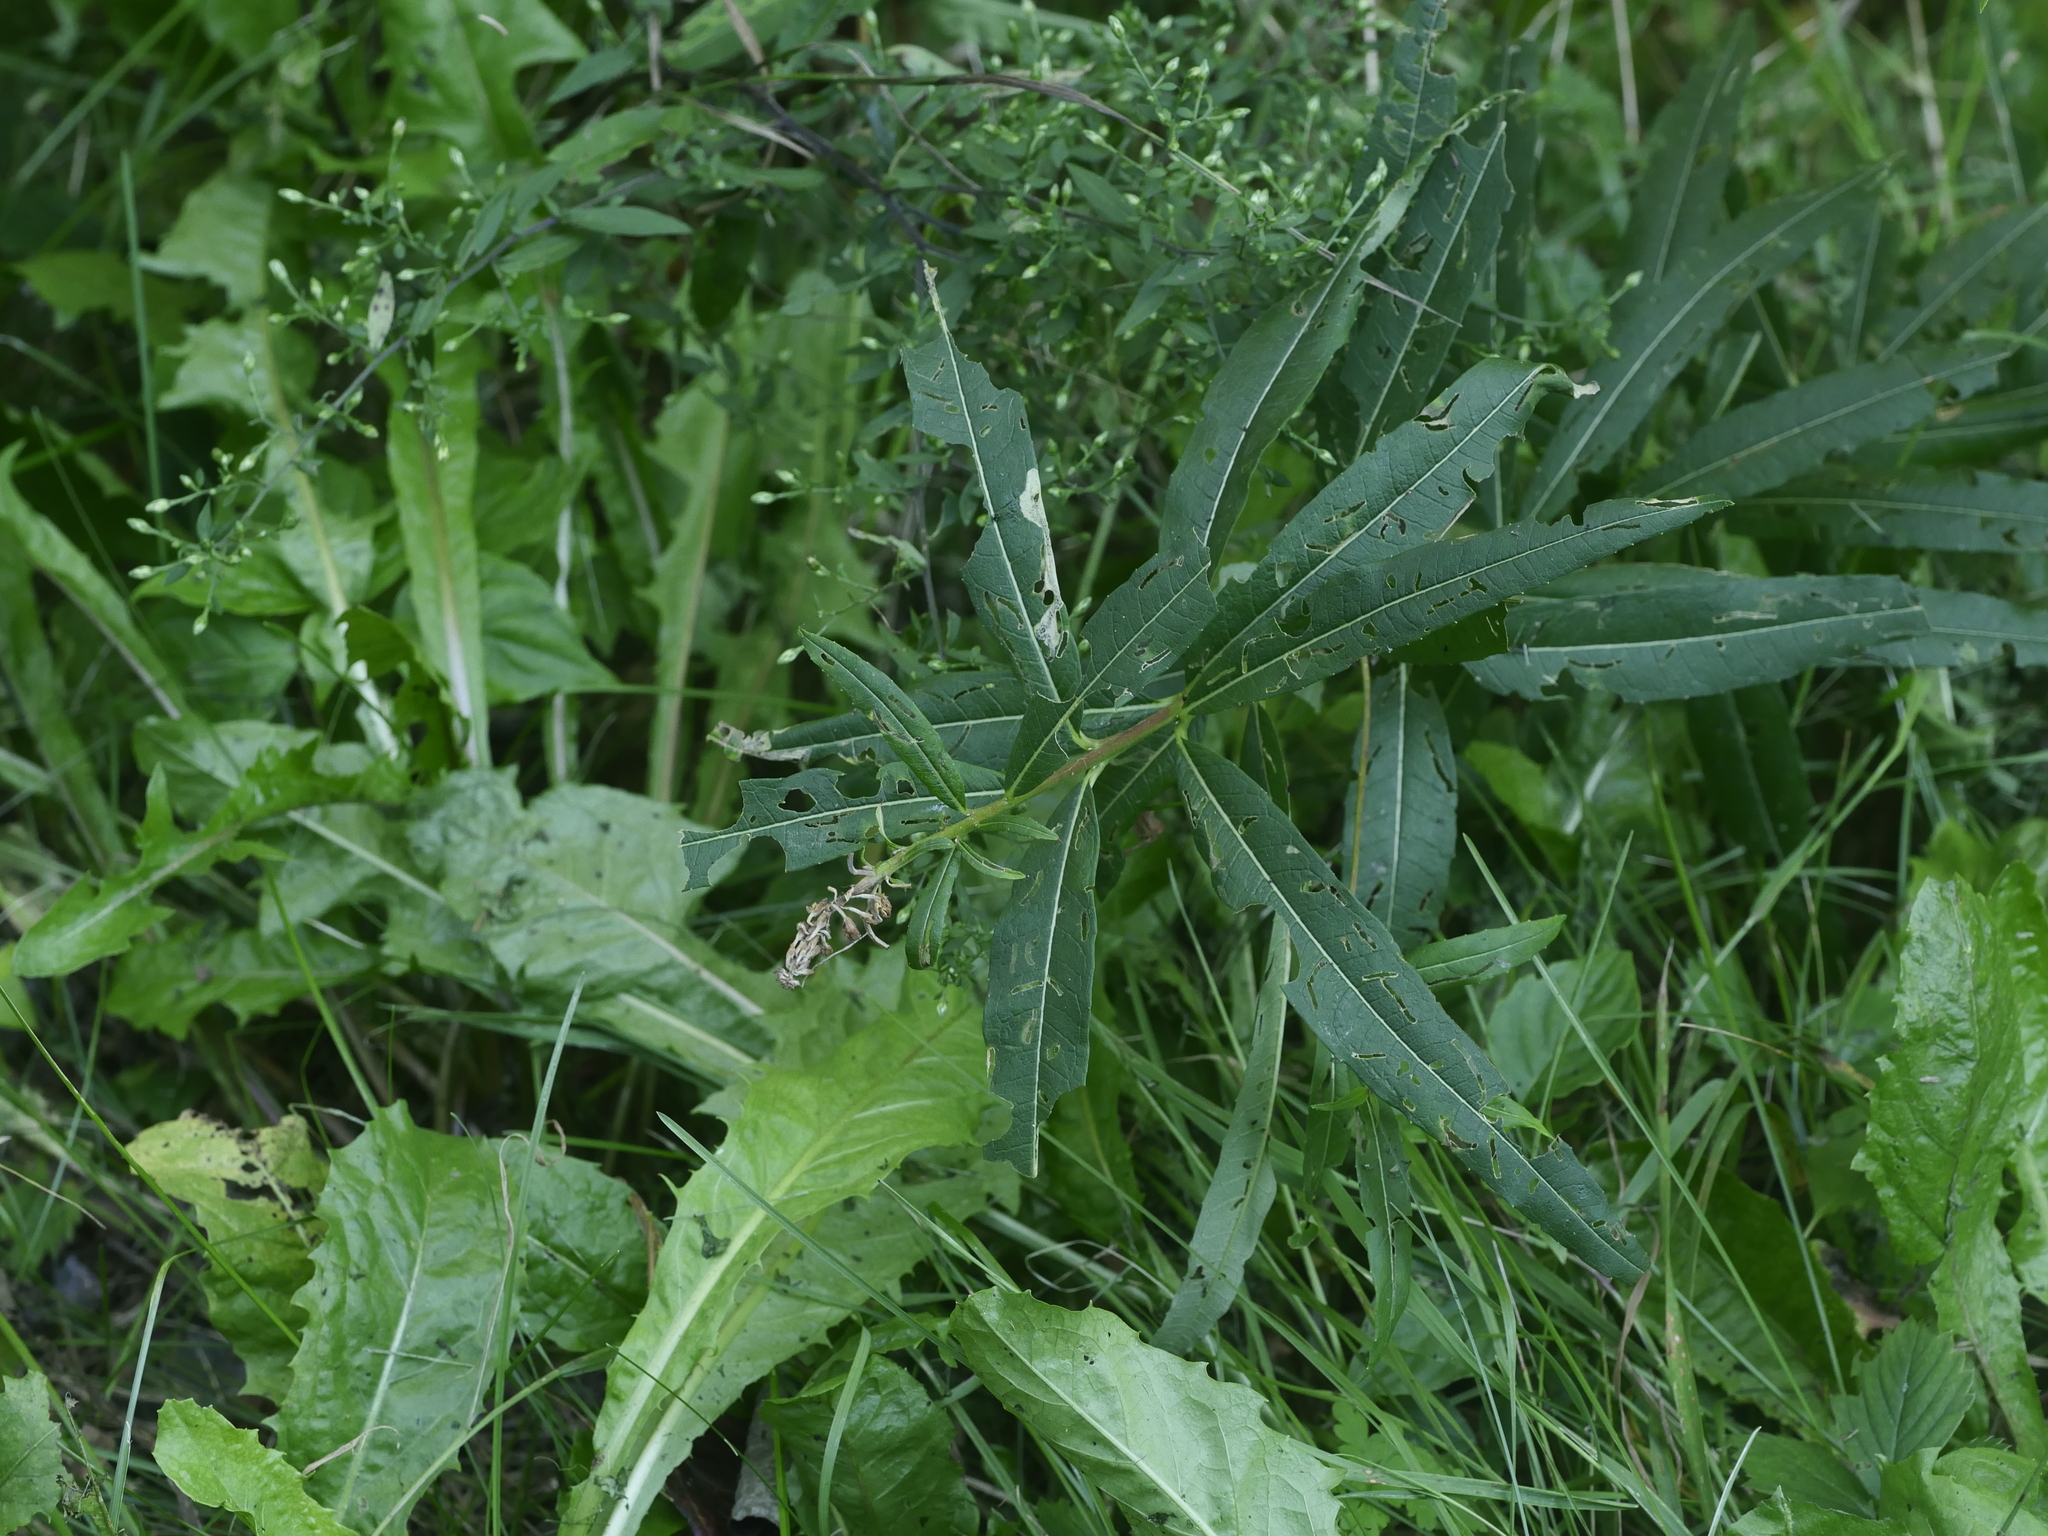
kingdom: Plantae
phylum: Tracheophyta
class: Magnoliopsida
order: Myrtales
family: Onagraceae
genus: Chamaenerion
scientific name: Chamaenerion angustifolium
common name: Fireweed
